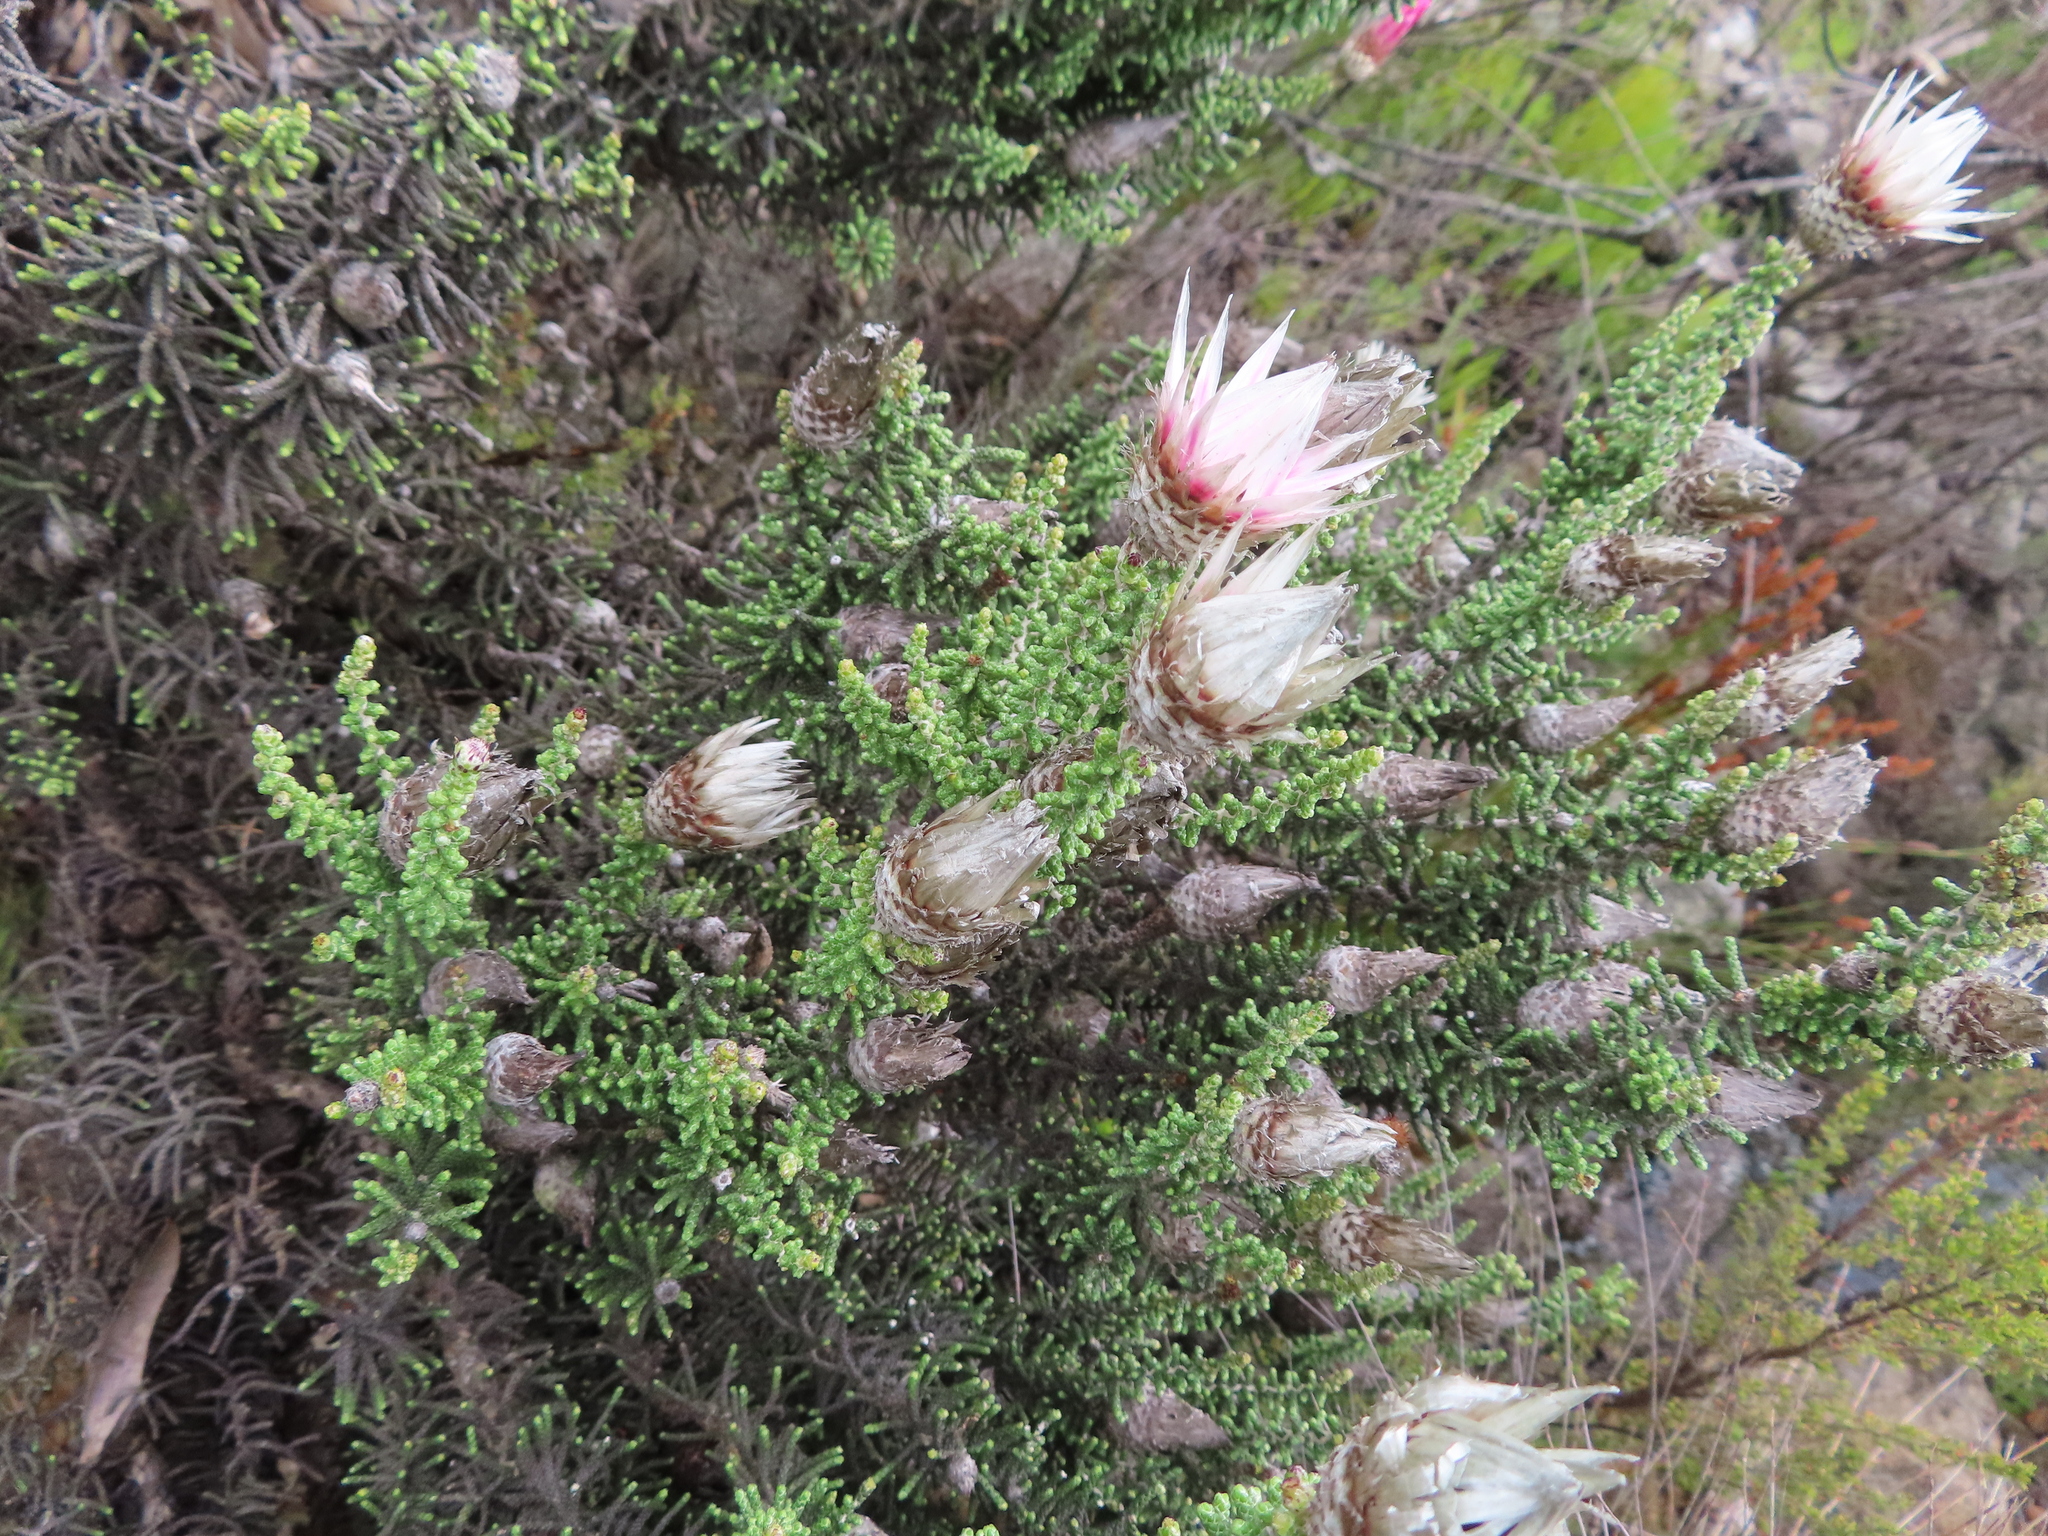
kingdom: Plantae
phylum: Tracheophyta
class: Magnoliopsida
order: Asterales
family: Asteraceae
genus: Phaenocoma
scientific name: Phaenocoma prolifera
